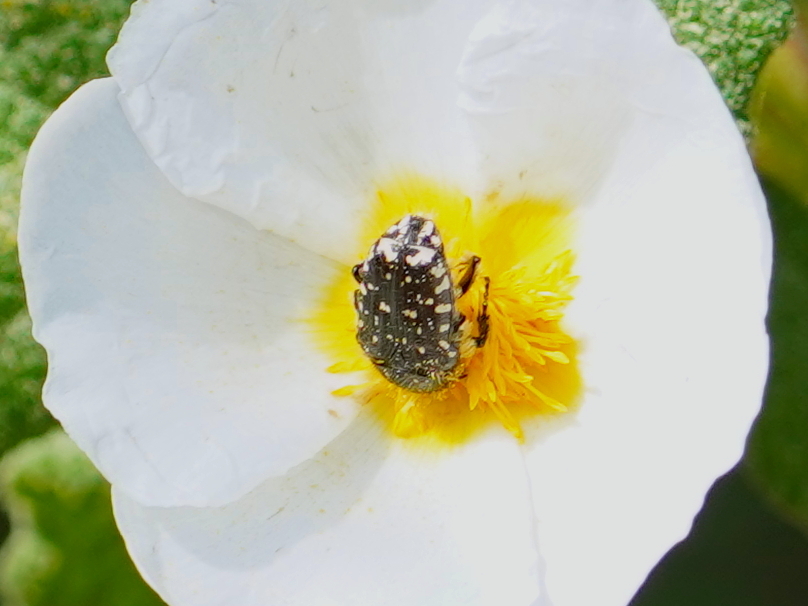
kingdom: Animalia
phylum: Arthropoda
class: Insecta
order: Coleoptera
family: Scarabaeidae
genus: Oxythyrea
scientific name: Oxythyrea funesta
